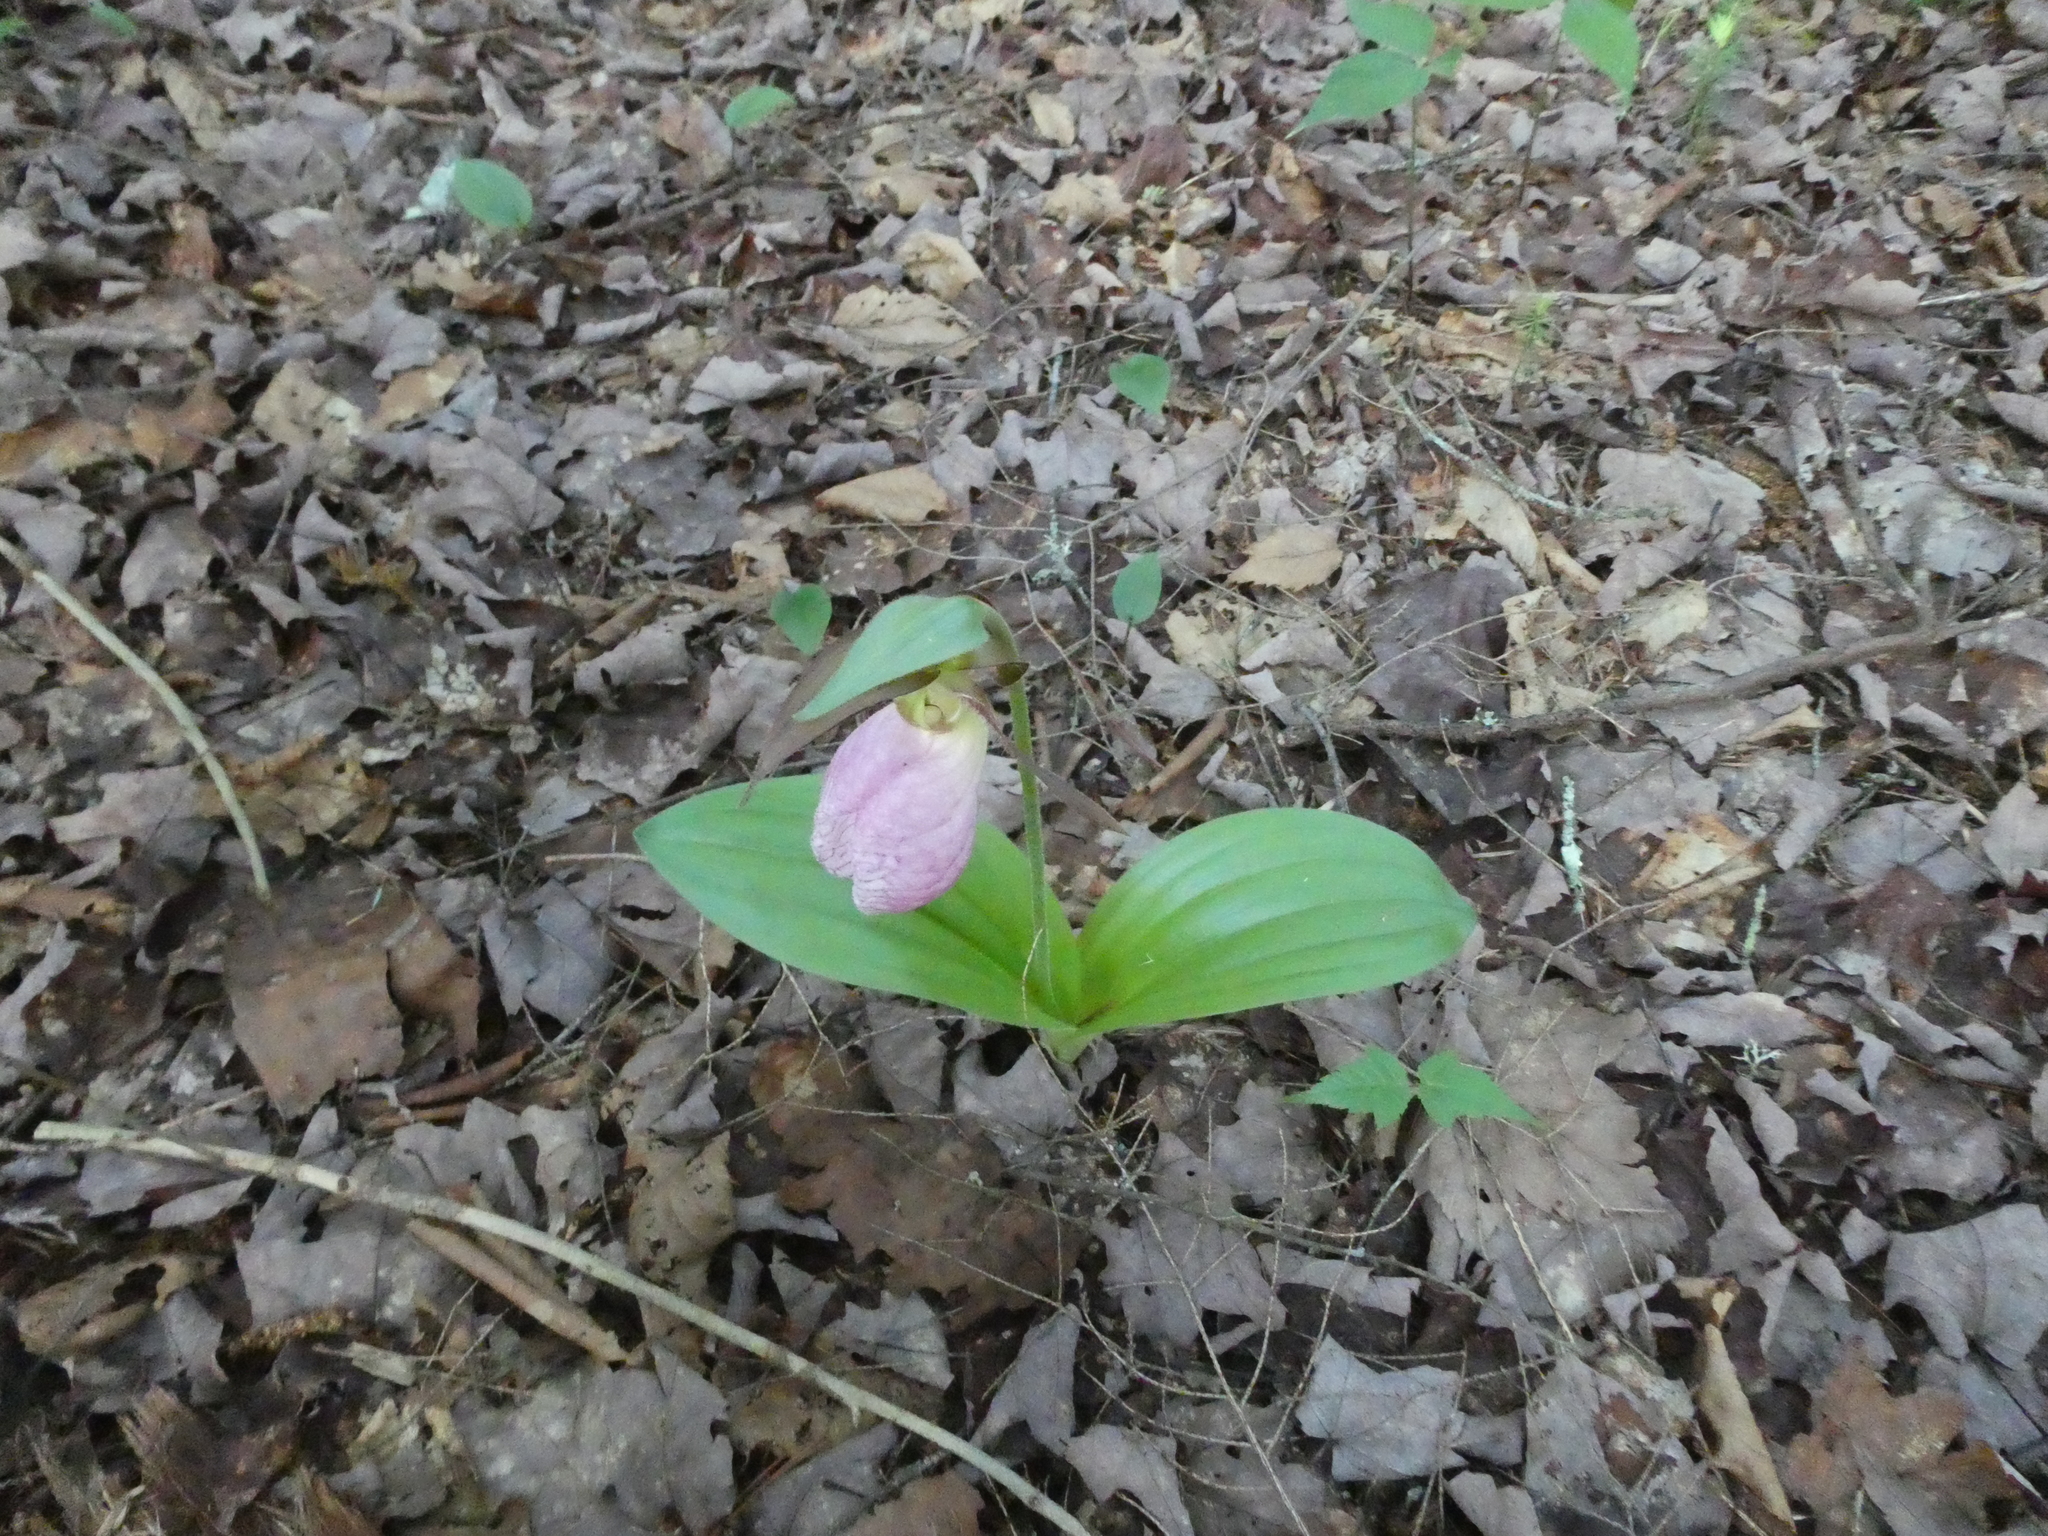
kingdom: Plantae
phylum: Tracheophyta
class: Liliopsida
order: Asparagales
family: Orchidaceae
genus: Cypripedium
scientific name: Cypripedium acaule
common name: Pink lady's-slipper
